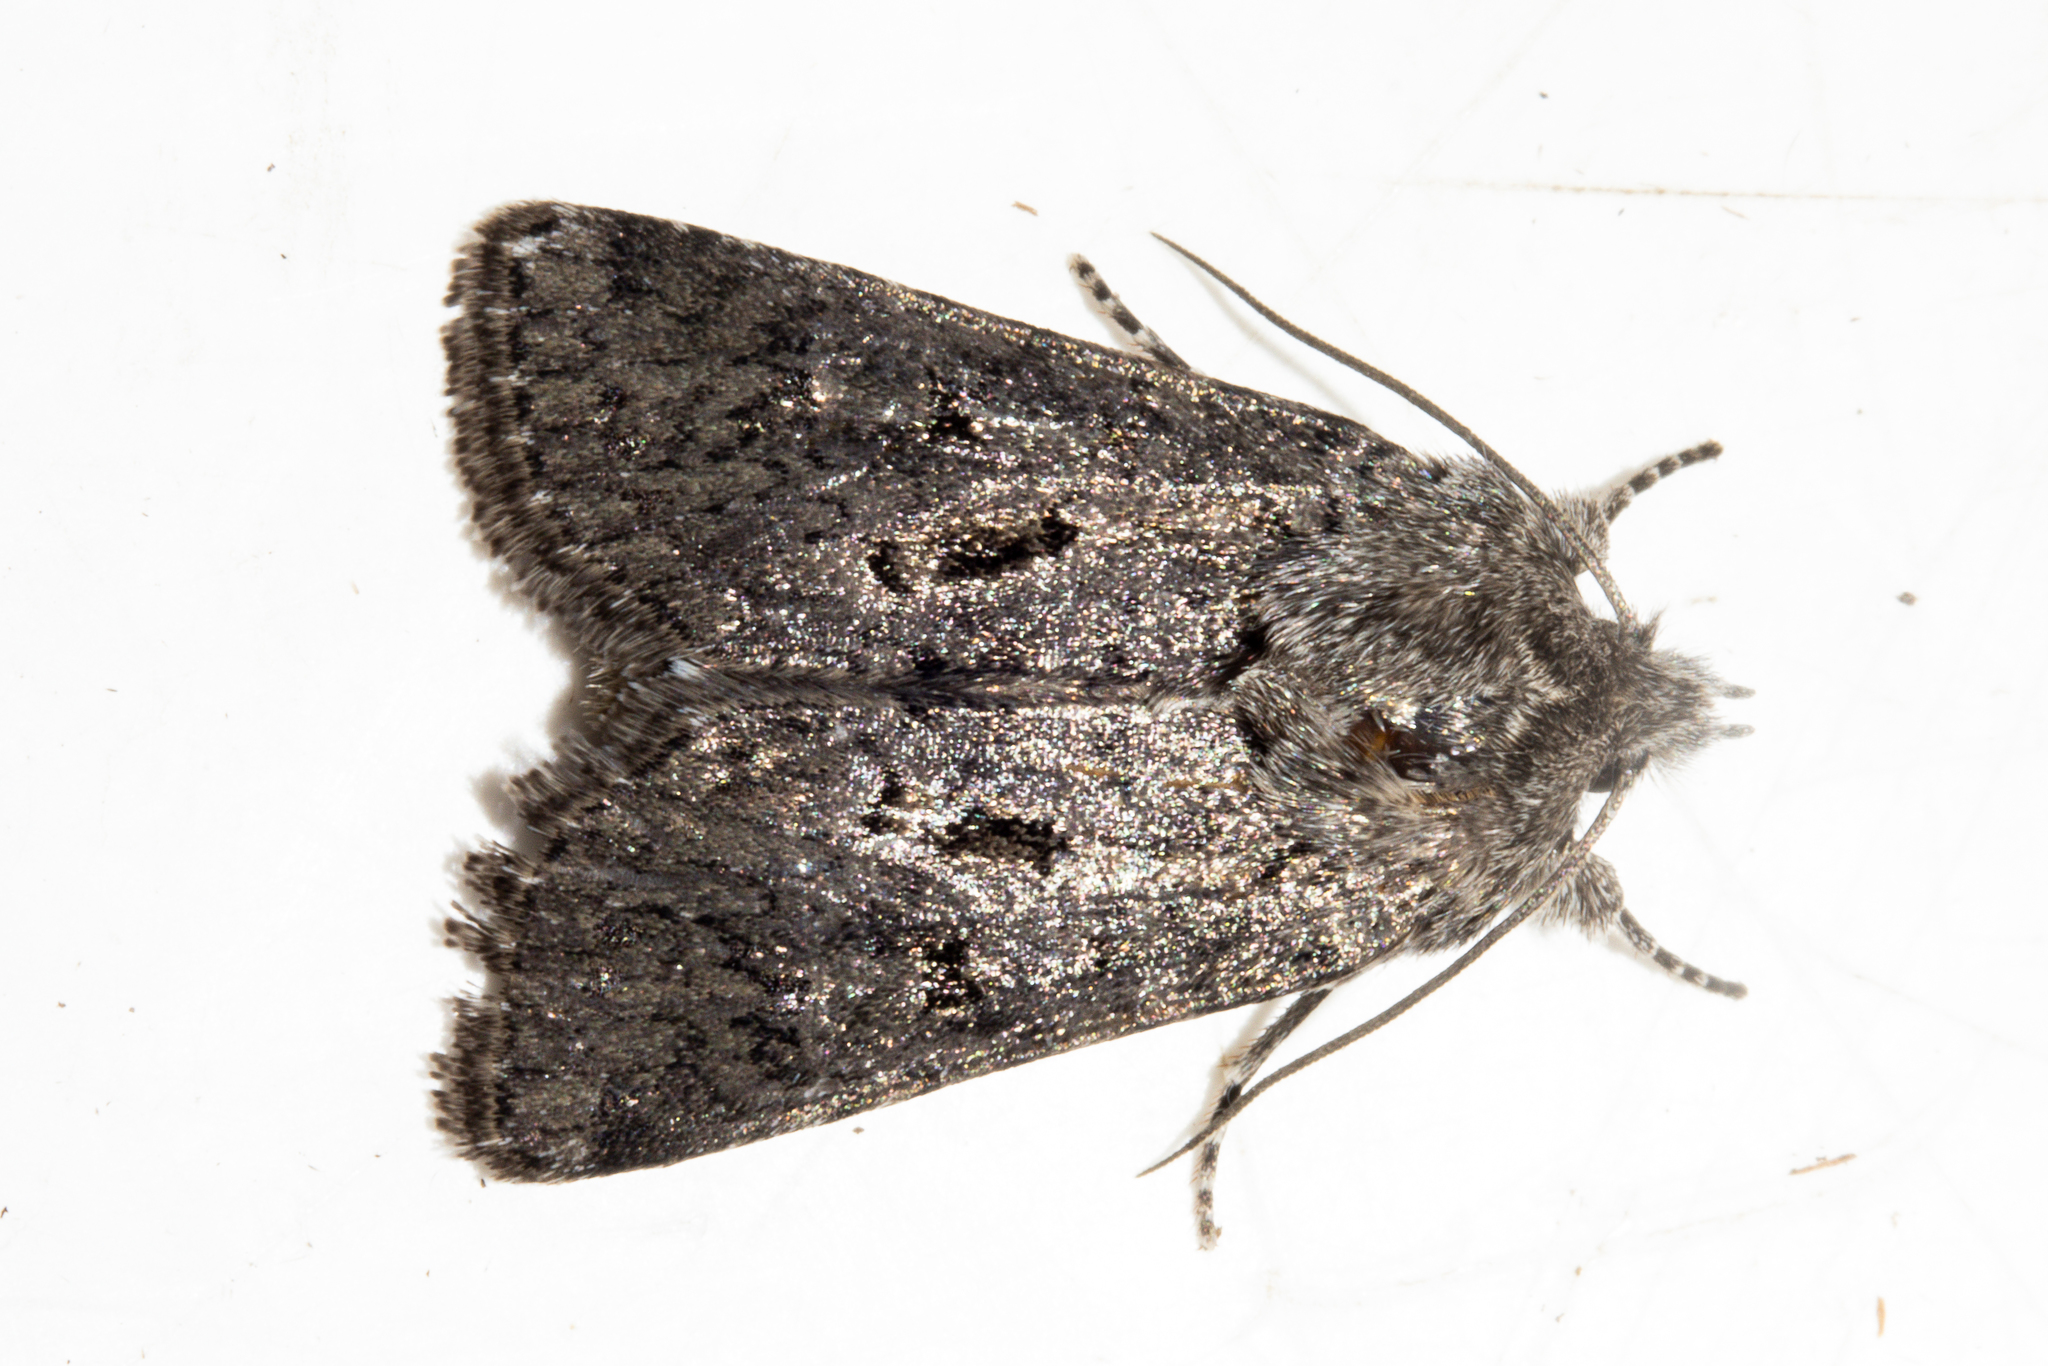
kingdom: Animalia
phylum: Arthropoda
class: Insecta
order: Lepidoptera
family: Noctuidae
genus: Physetica
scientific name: Physetica cucullina
